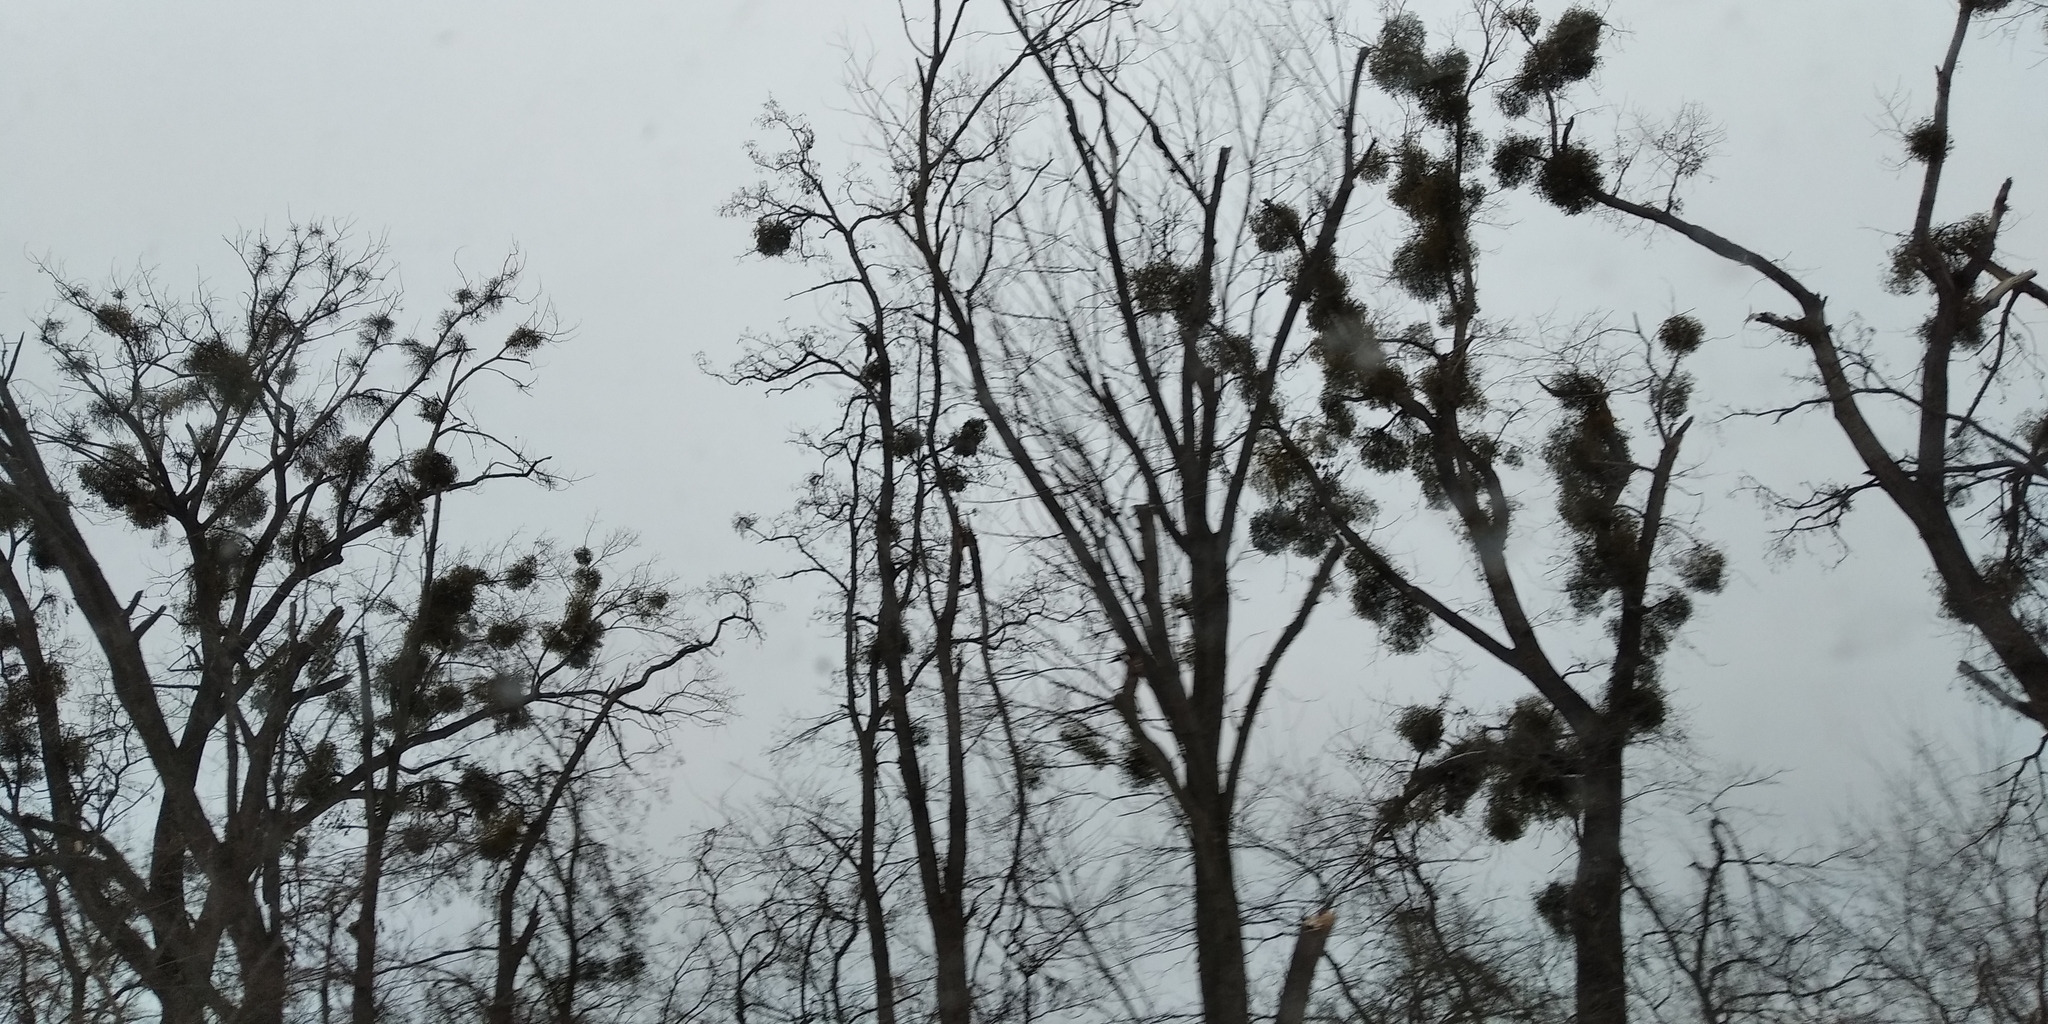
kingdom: Plantae
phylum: Tracheophyta
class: Magnoliopsida
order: Santalales
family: Viscaceae
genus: Viscum
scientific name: Viscum album
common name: Mistletoe
